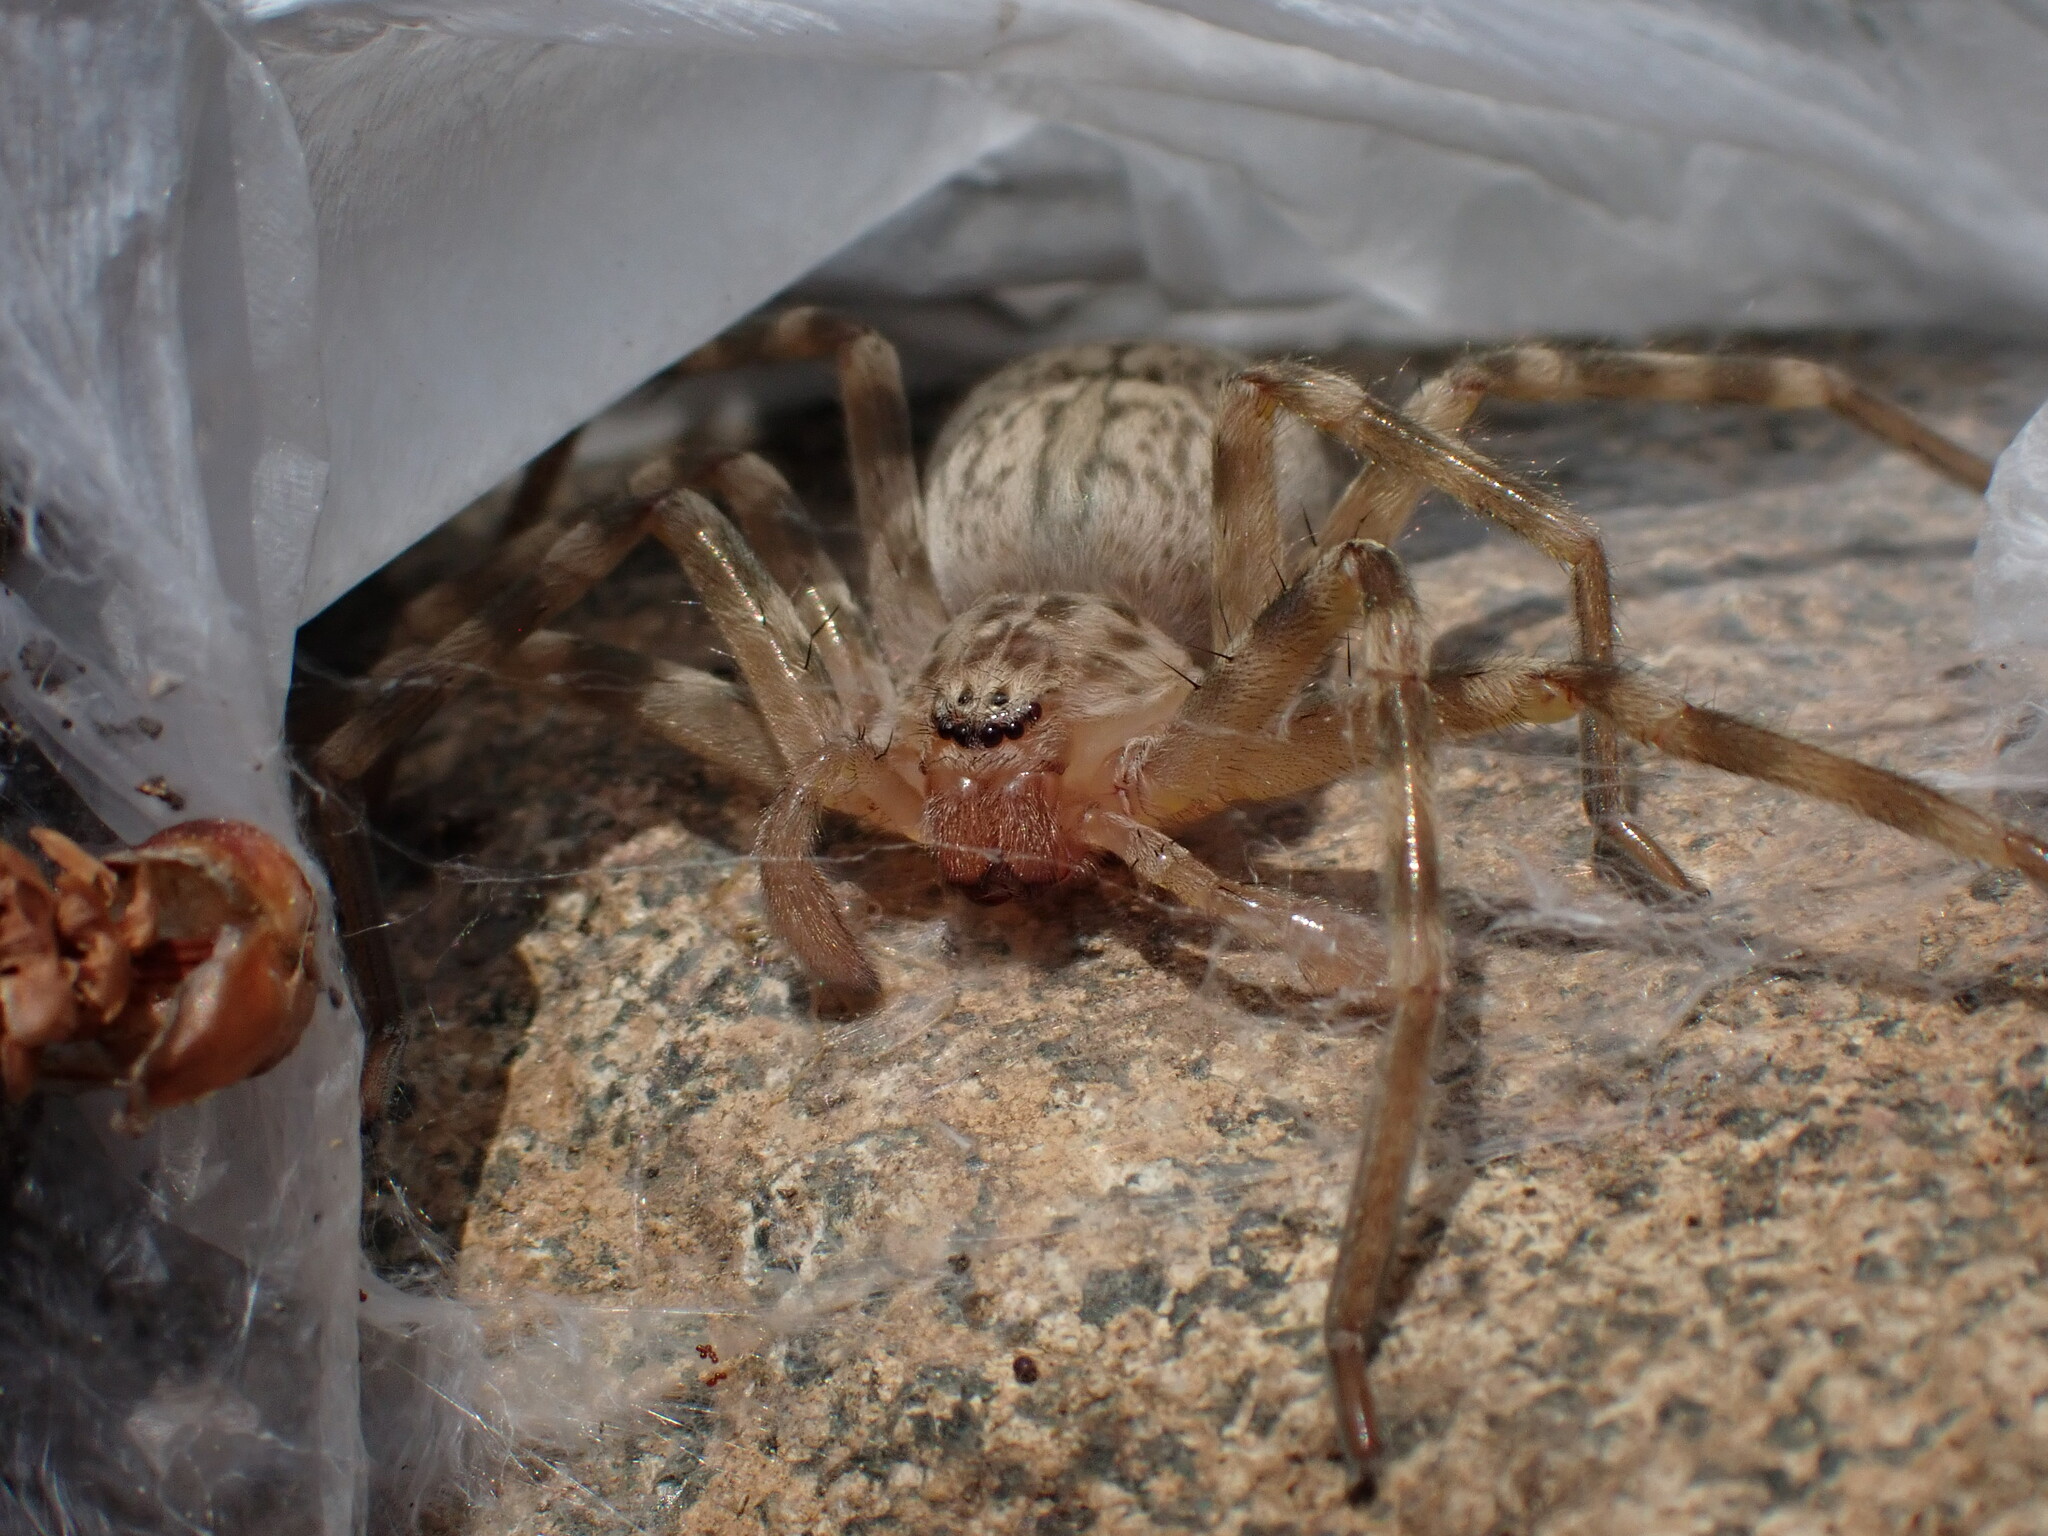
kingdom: Animalia
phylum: Arthropoda
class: Arachnida
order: Araneae
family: Sparassidae
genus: Eusparassus
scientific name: Eusparassus walckenaeri
